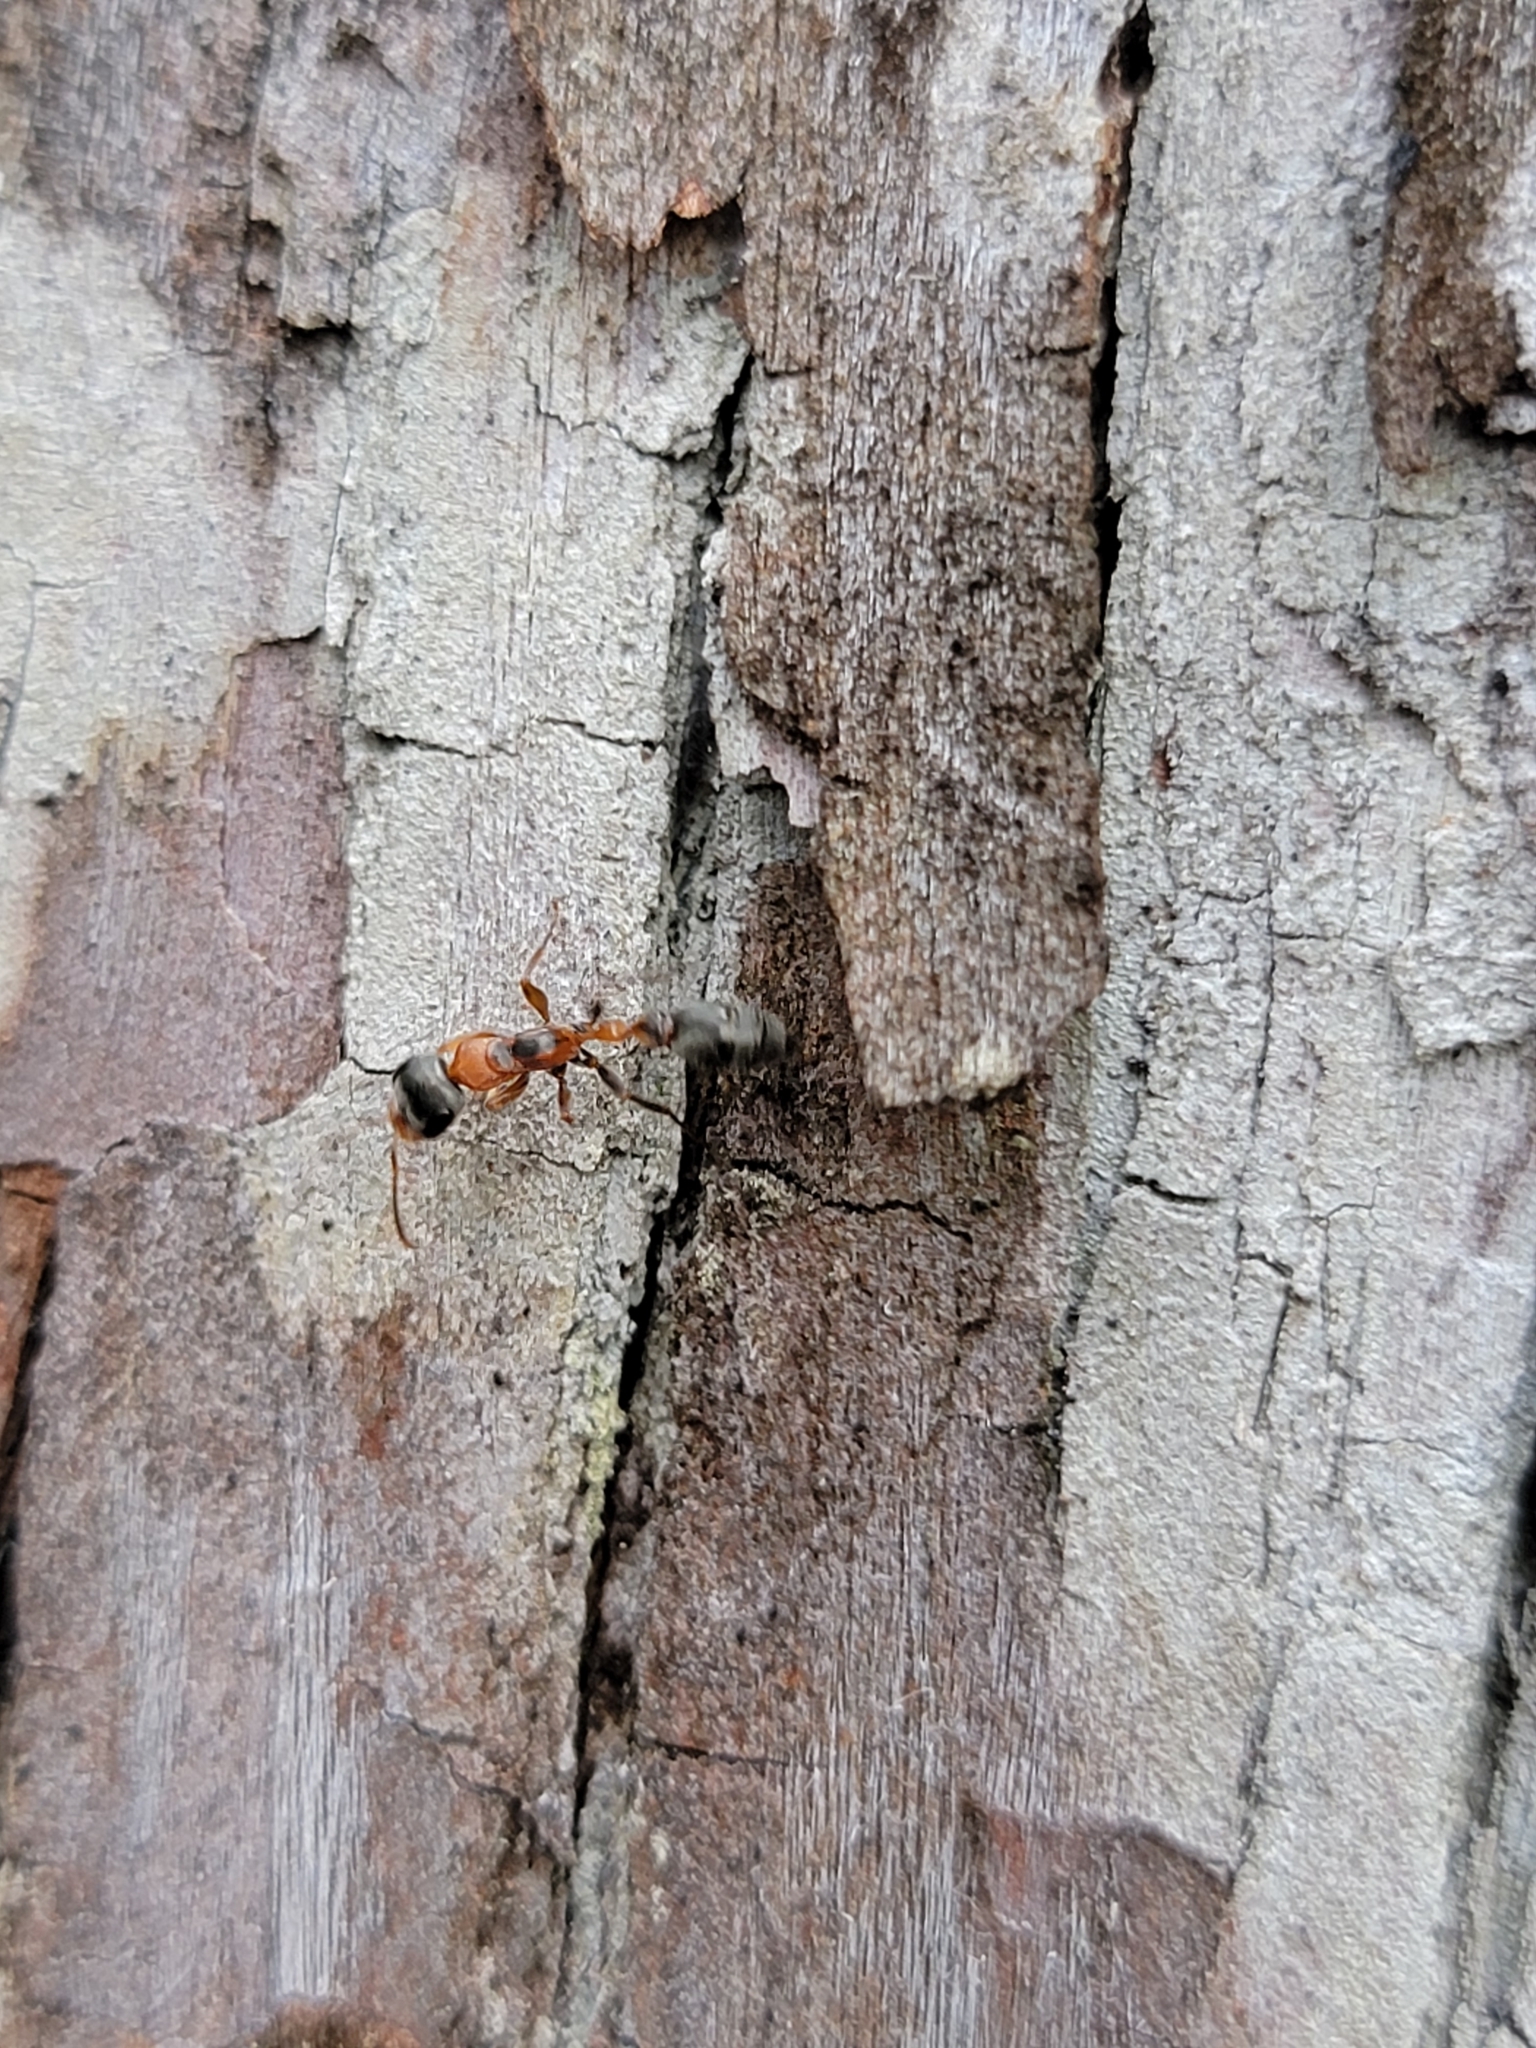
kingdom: Animalia
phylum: Arthropoda
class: Insecta
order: Hymenoptera
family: Formicidae
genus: Pseudomyrmex
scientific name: Pseudomyrmex gracilis
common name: Graceful twig ant
